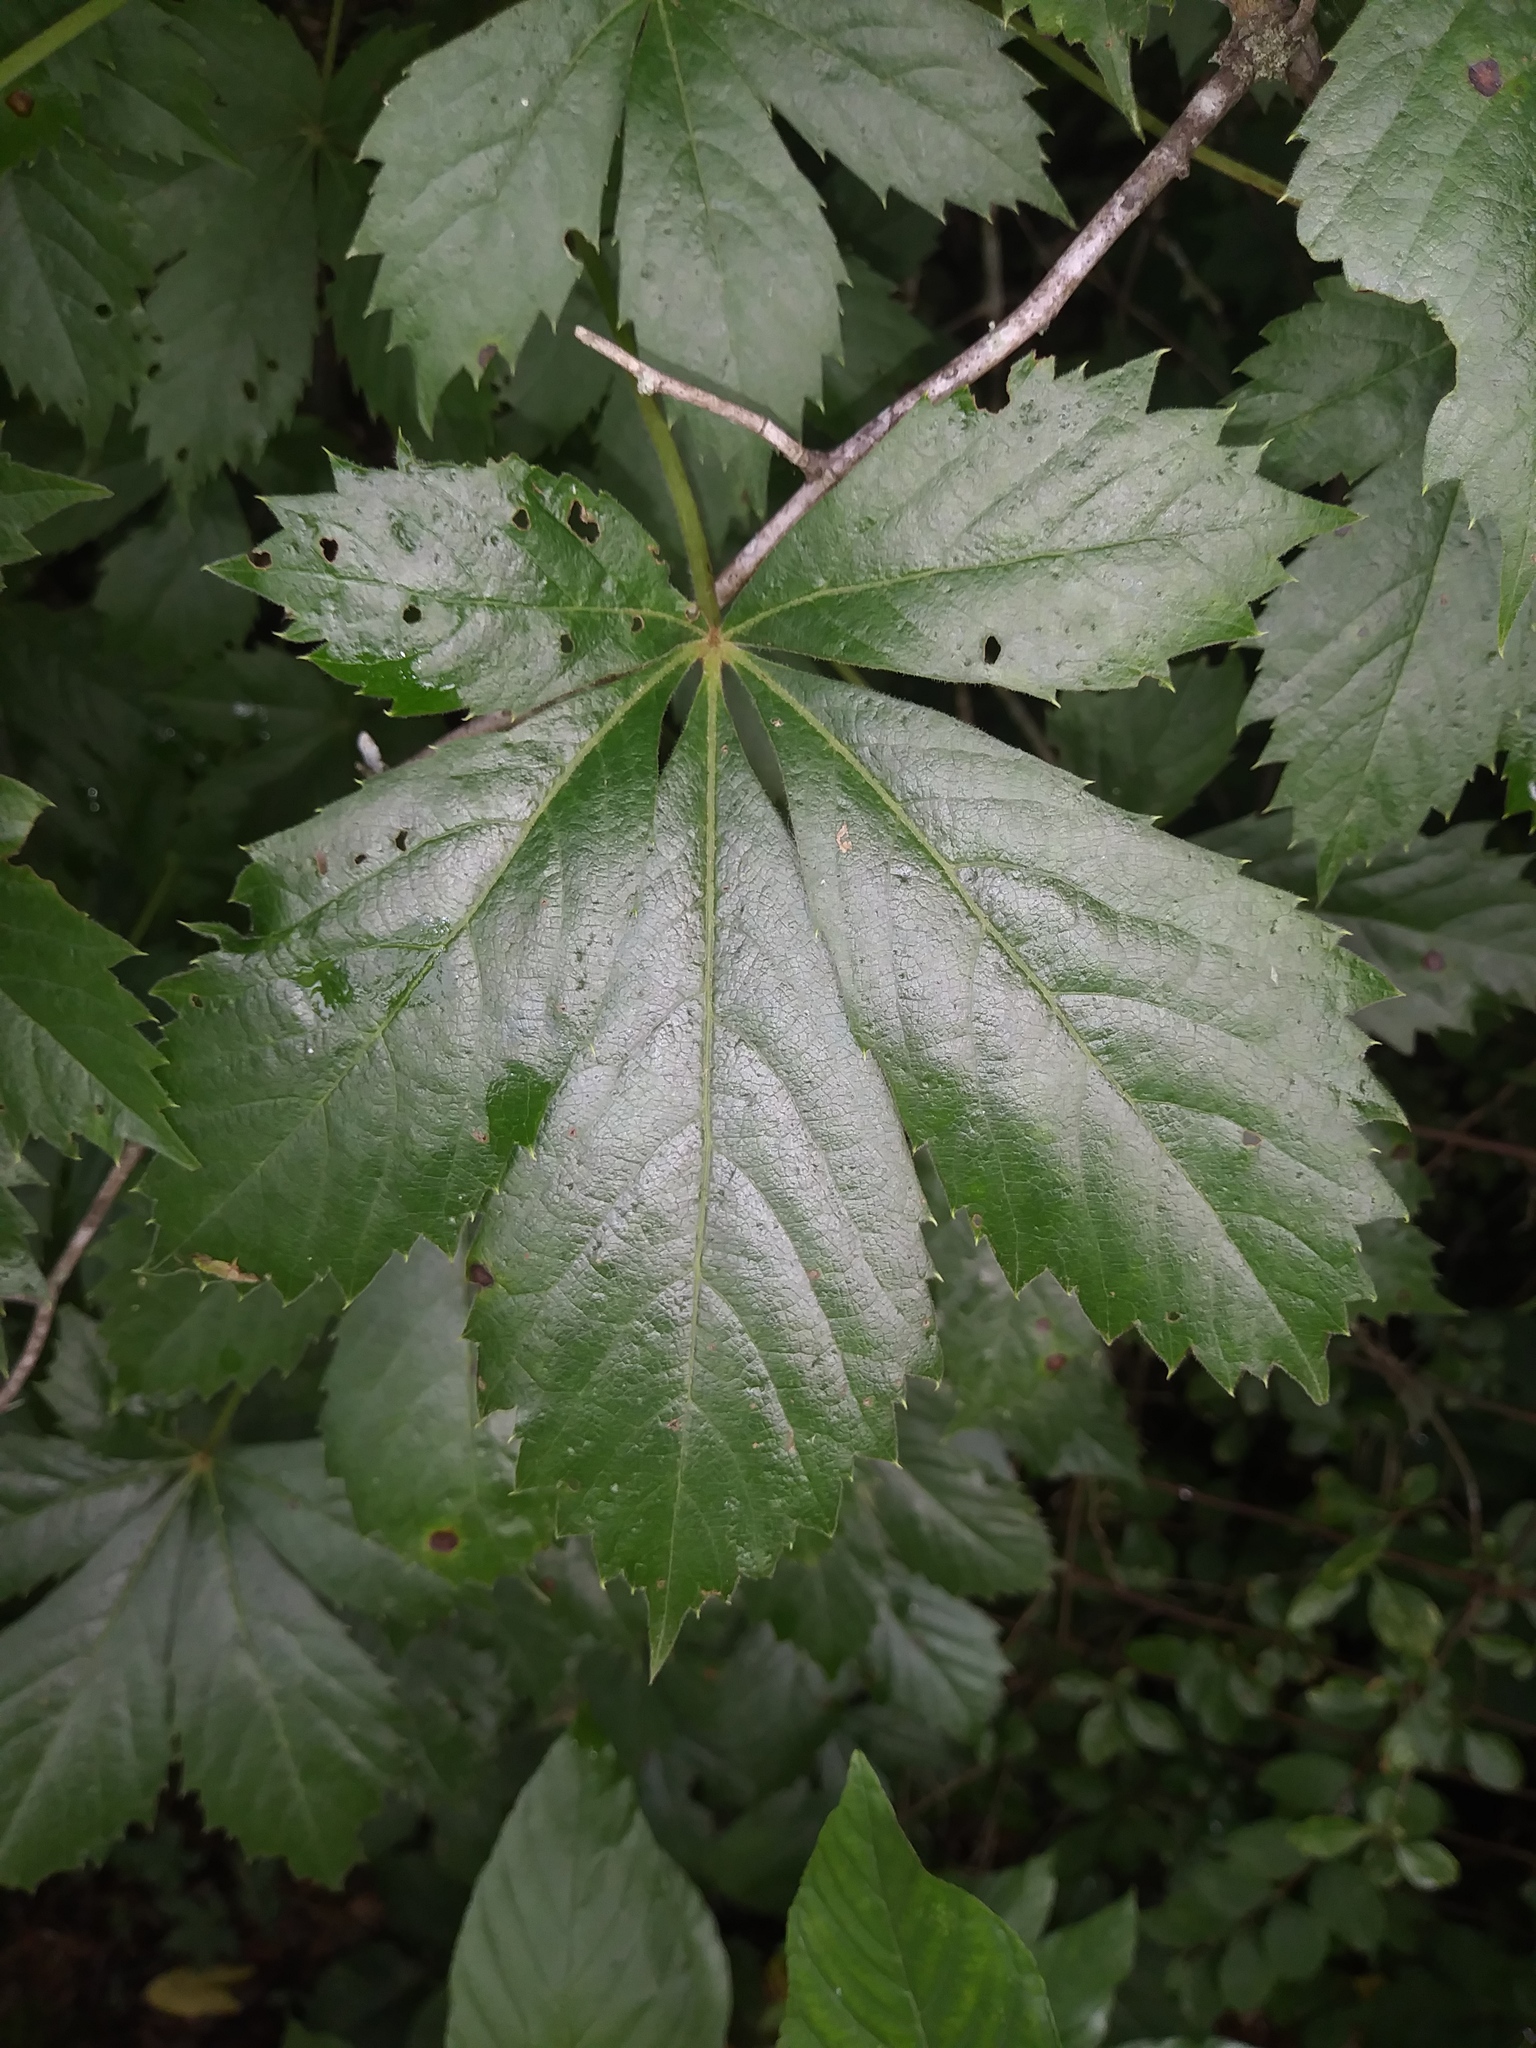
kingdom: Plantae
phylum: Tracheophyta
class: Magnoliopsida
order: Vitales
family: Vitaceae
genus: Parthenocissus
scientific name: Parthenocissus quinquefolia
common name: Virginia-creeper
